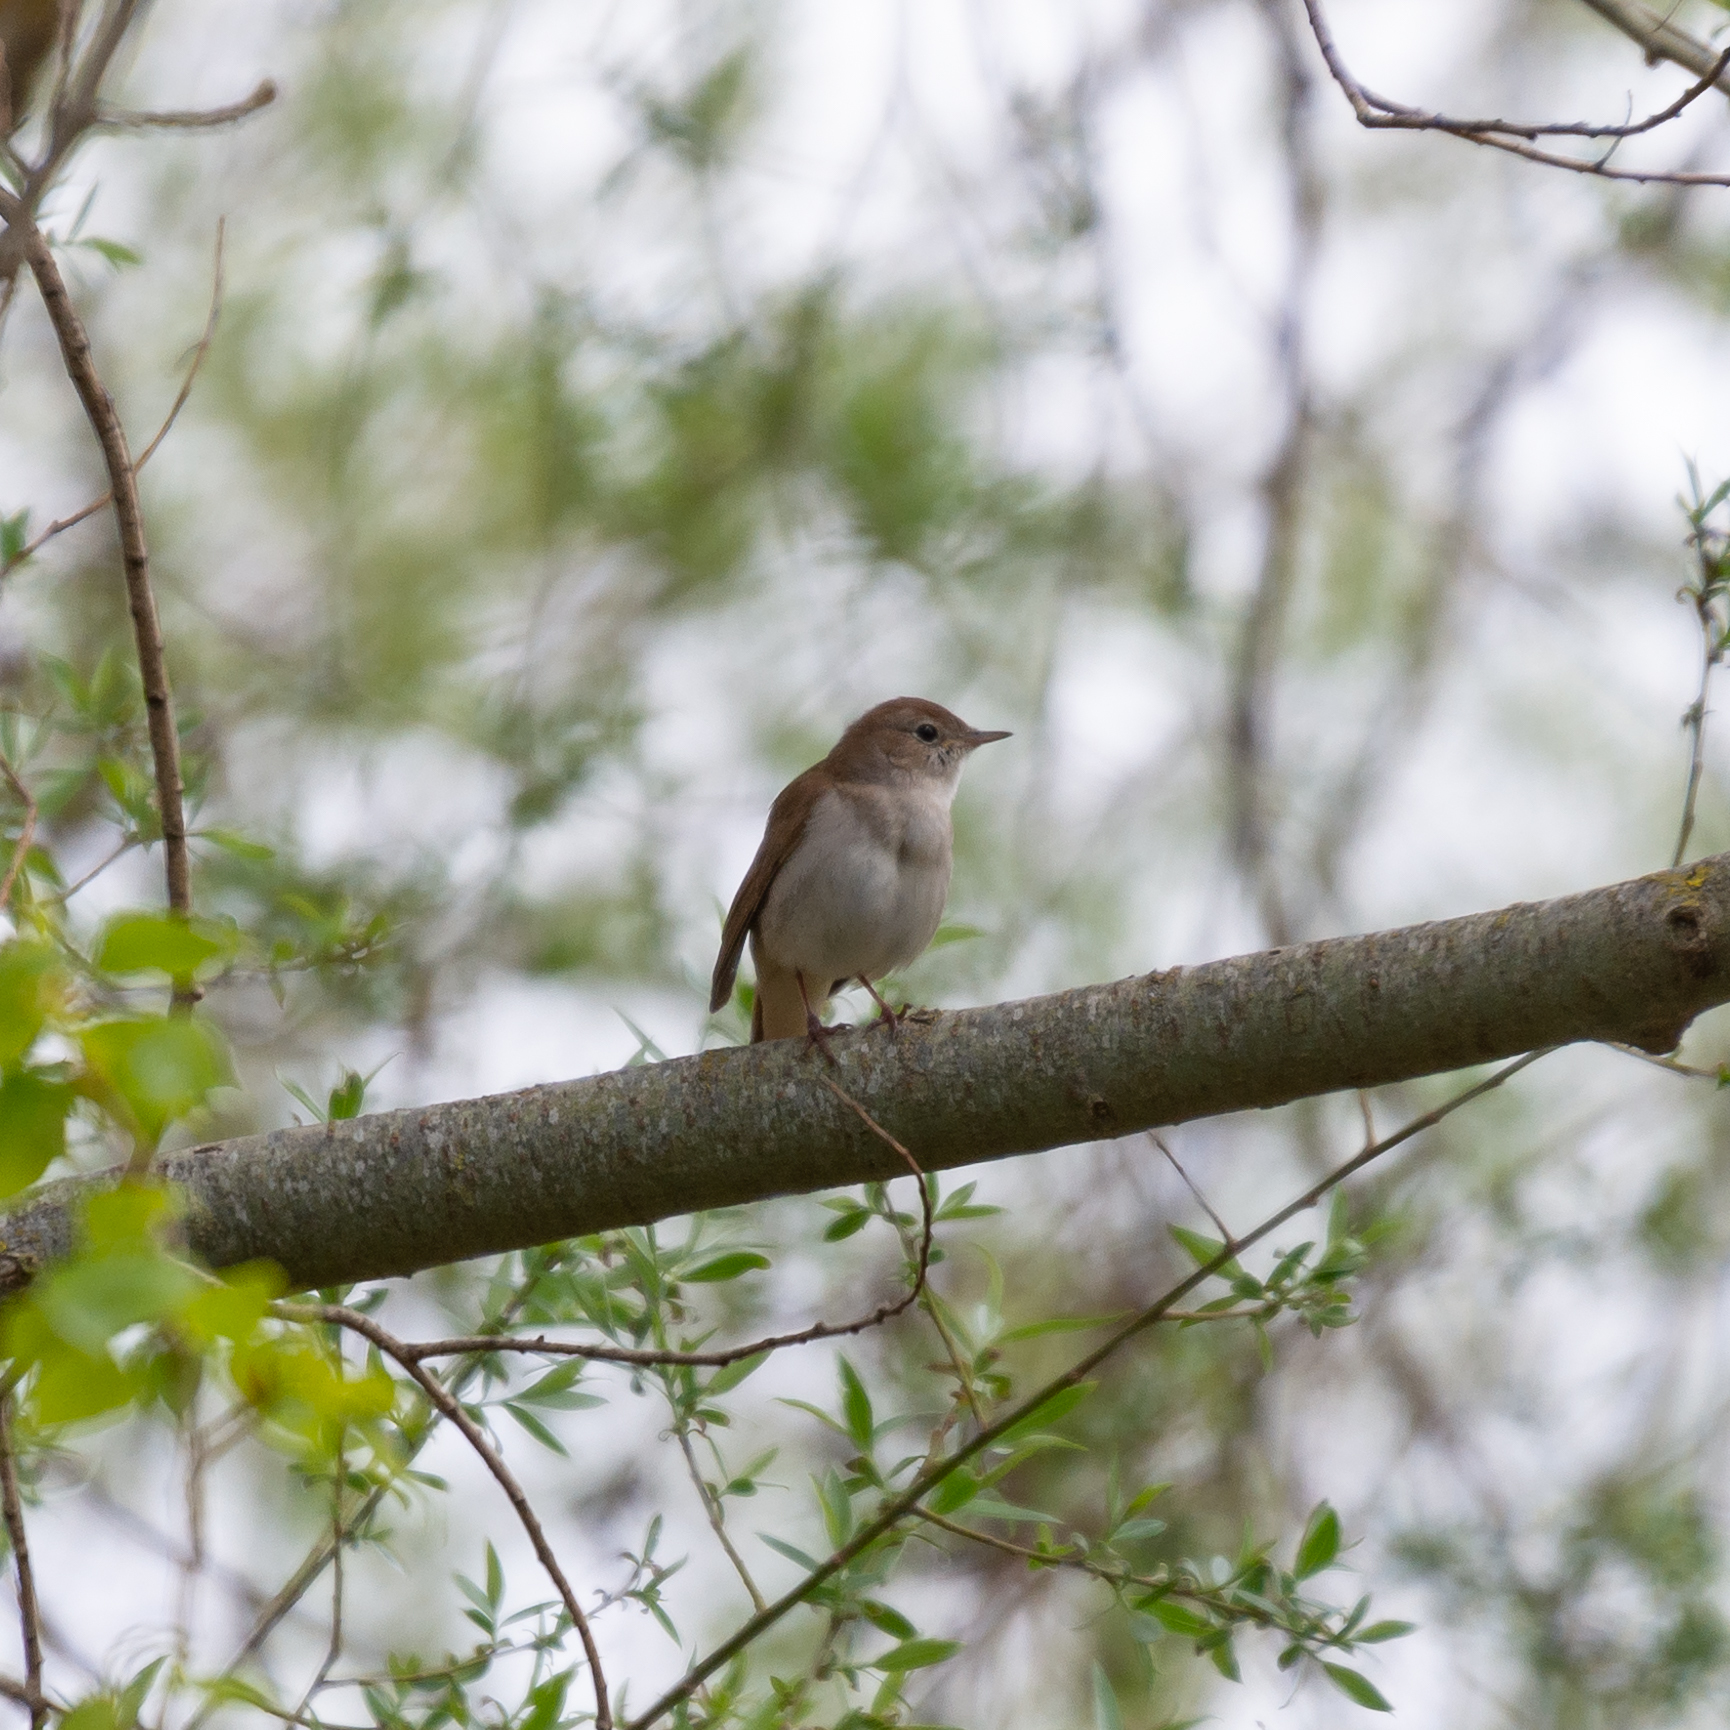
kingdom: Animalia
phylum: Chordata
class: Aves
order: Passeriformes
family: Muscicapidae
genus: Luscinia
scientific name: Luscinia megarhynchos
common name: Common nightingale
